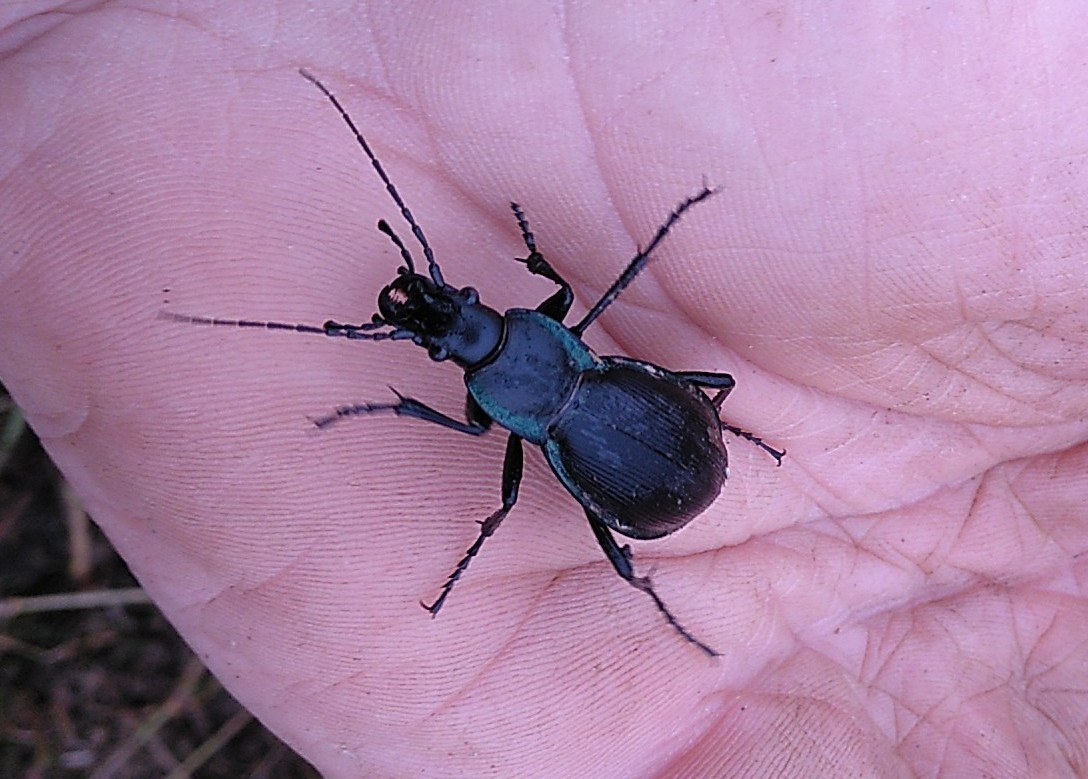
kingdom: Animalia
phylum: Arthropoda
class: Insecta
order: Coleoptera
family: Carabidae
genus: Carabus
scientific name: Carabus purpurascens
